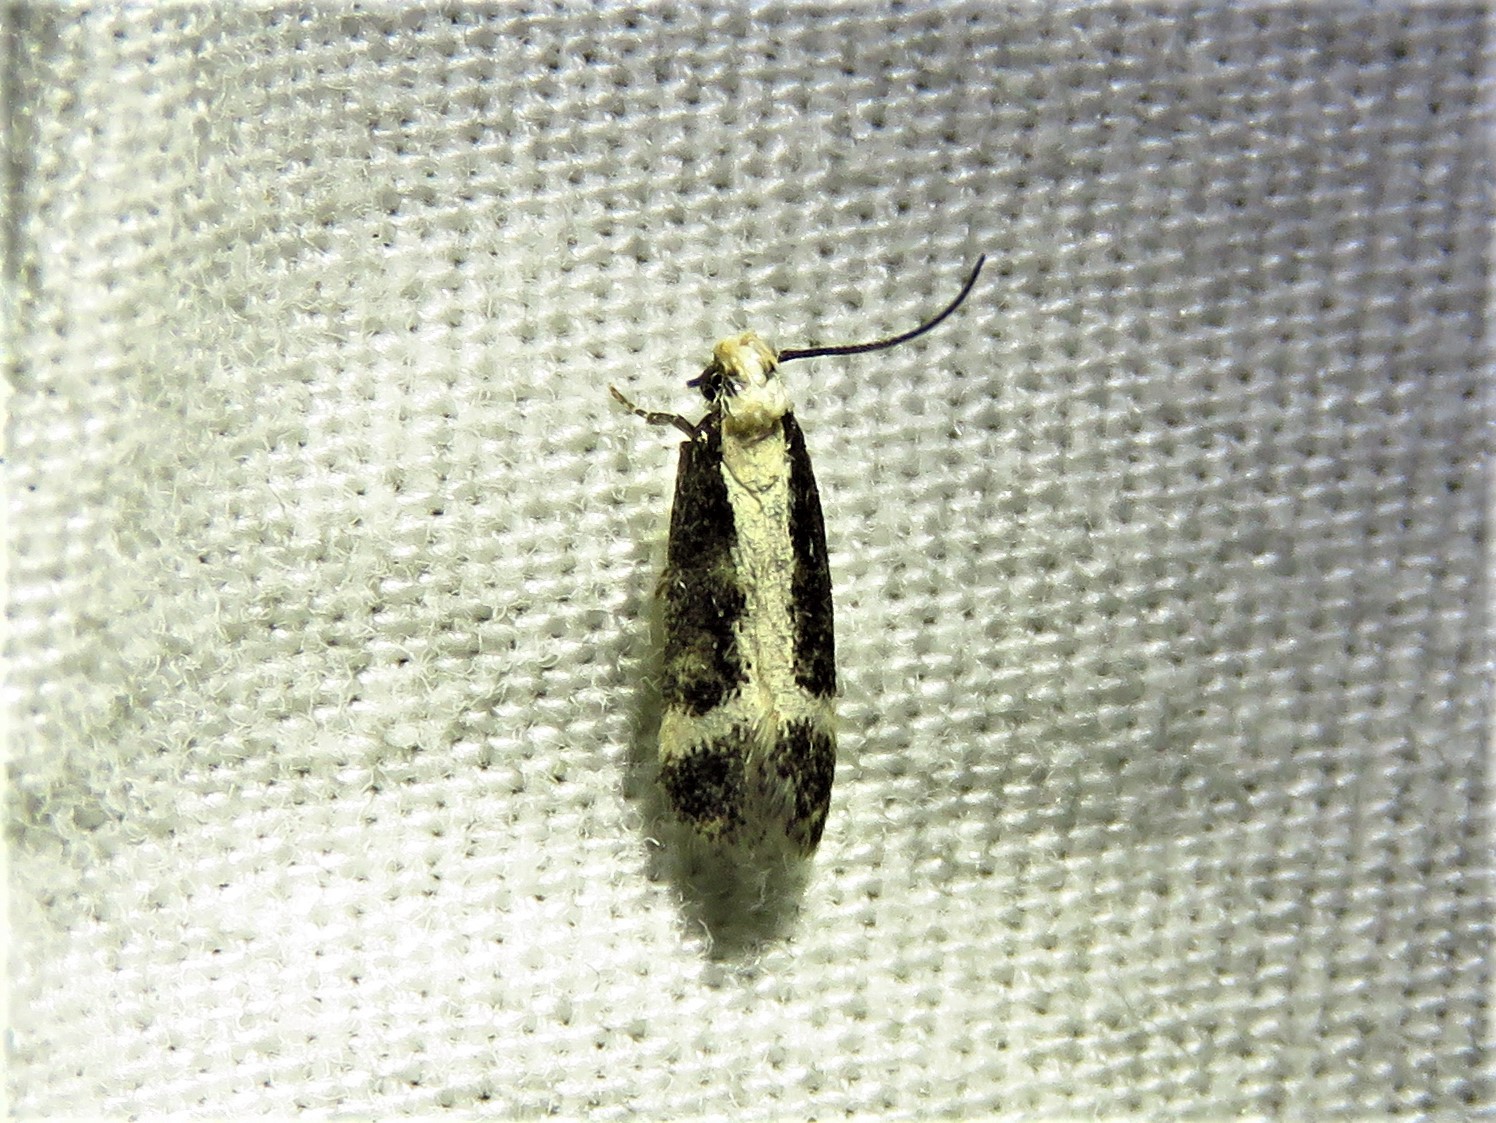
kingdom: Animalia
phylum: Arthropoda
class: Insecta
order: Lepidoptera
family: Gelechiidae
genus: Aroga
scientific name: Aroga camptogramma
